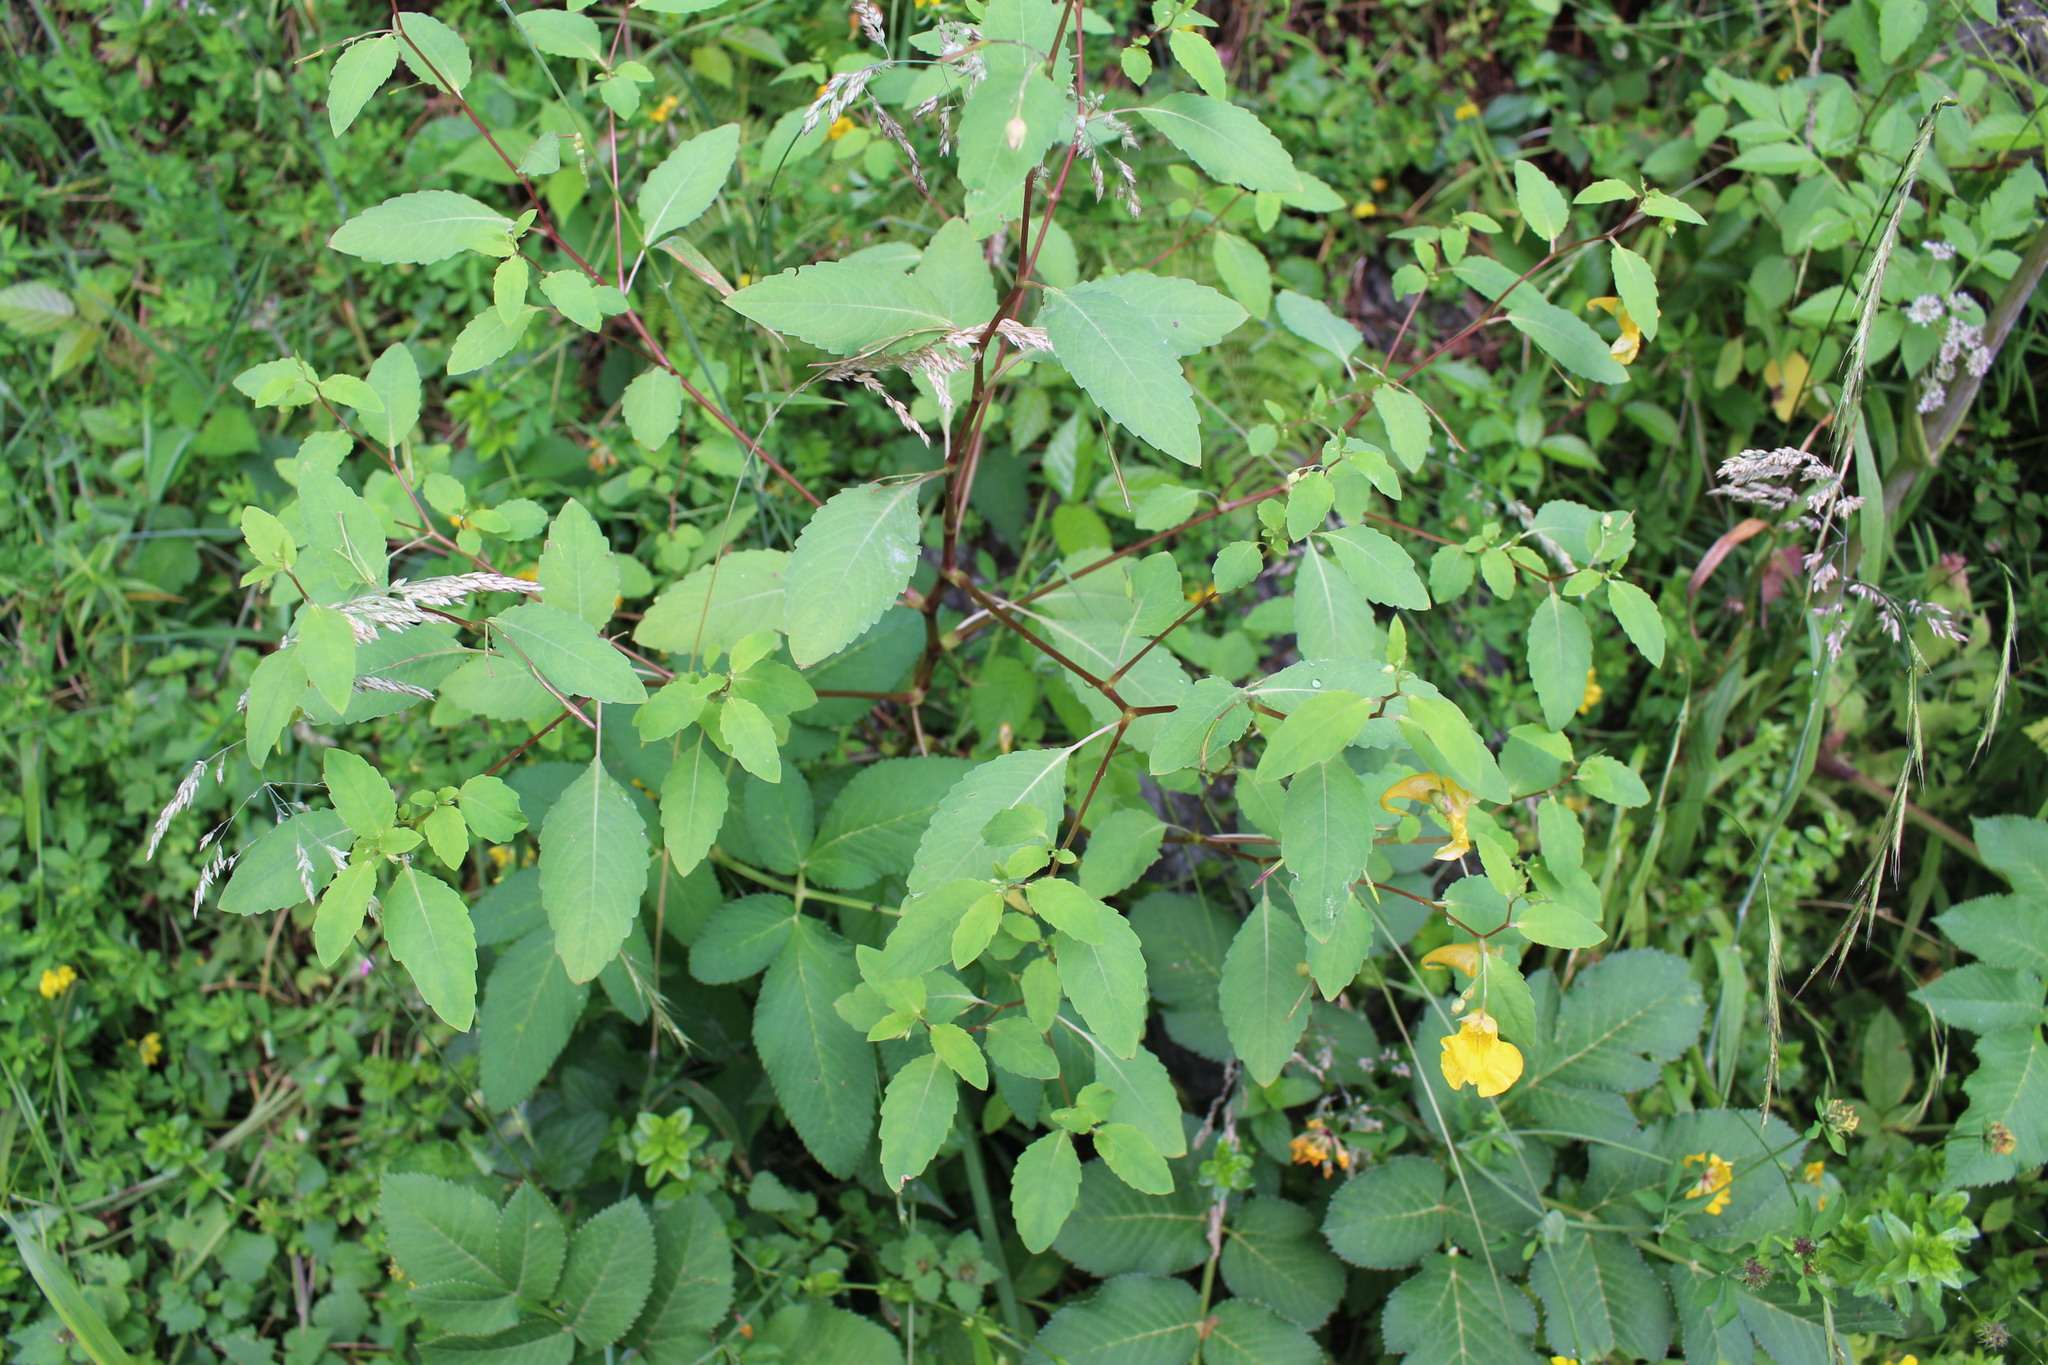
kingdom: Plantae
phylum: Tracheophyta
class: Magnoliopsida
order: Ericales
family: Balsaminaceae
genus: Impatiens
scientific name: Impatiens noli-tangere
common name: Touch-me-not balsam
